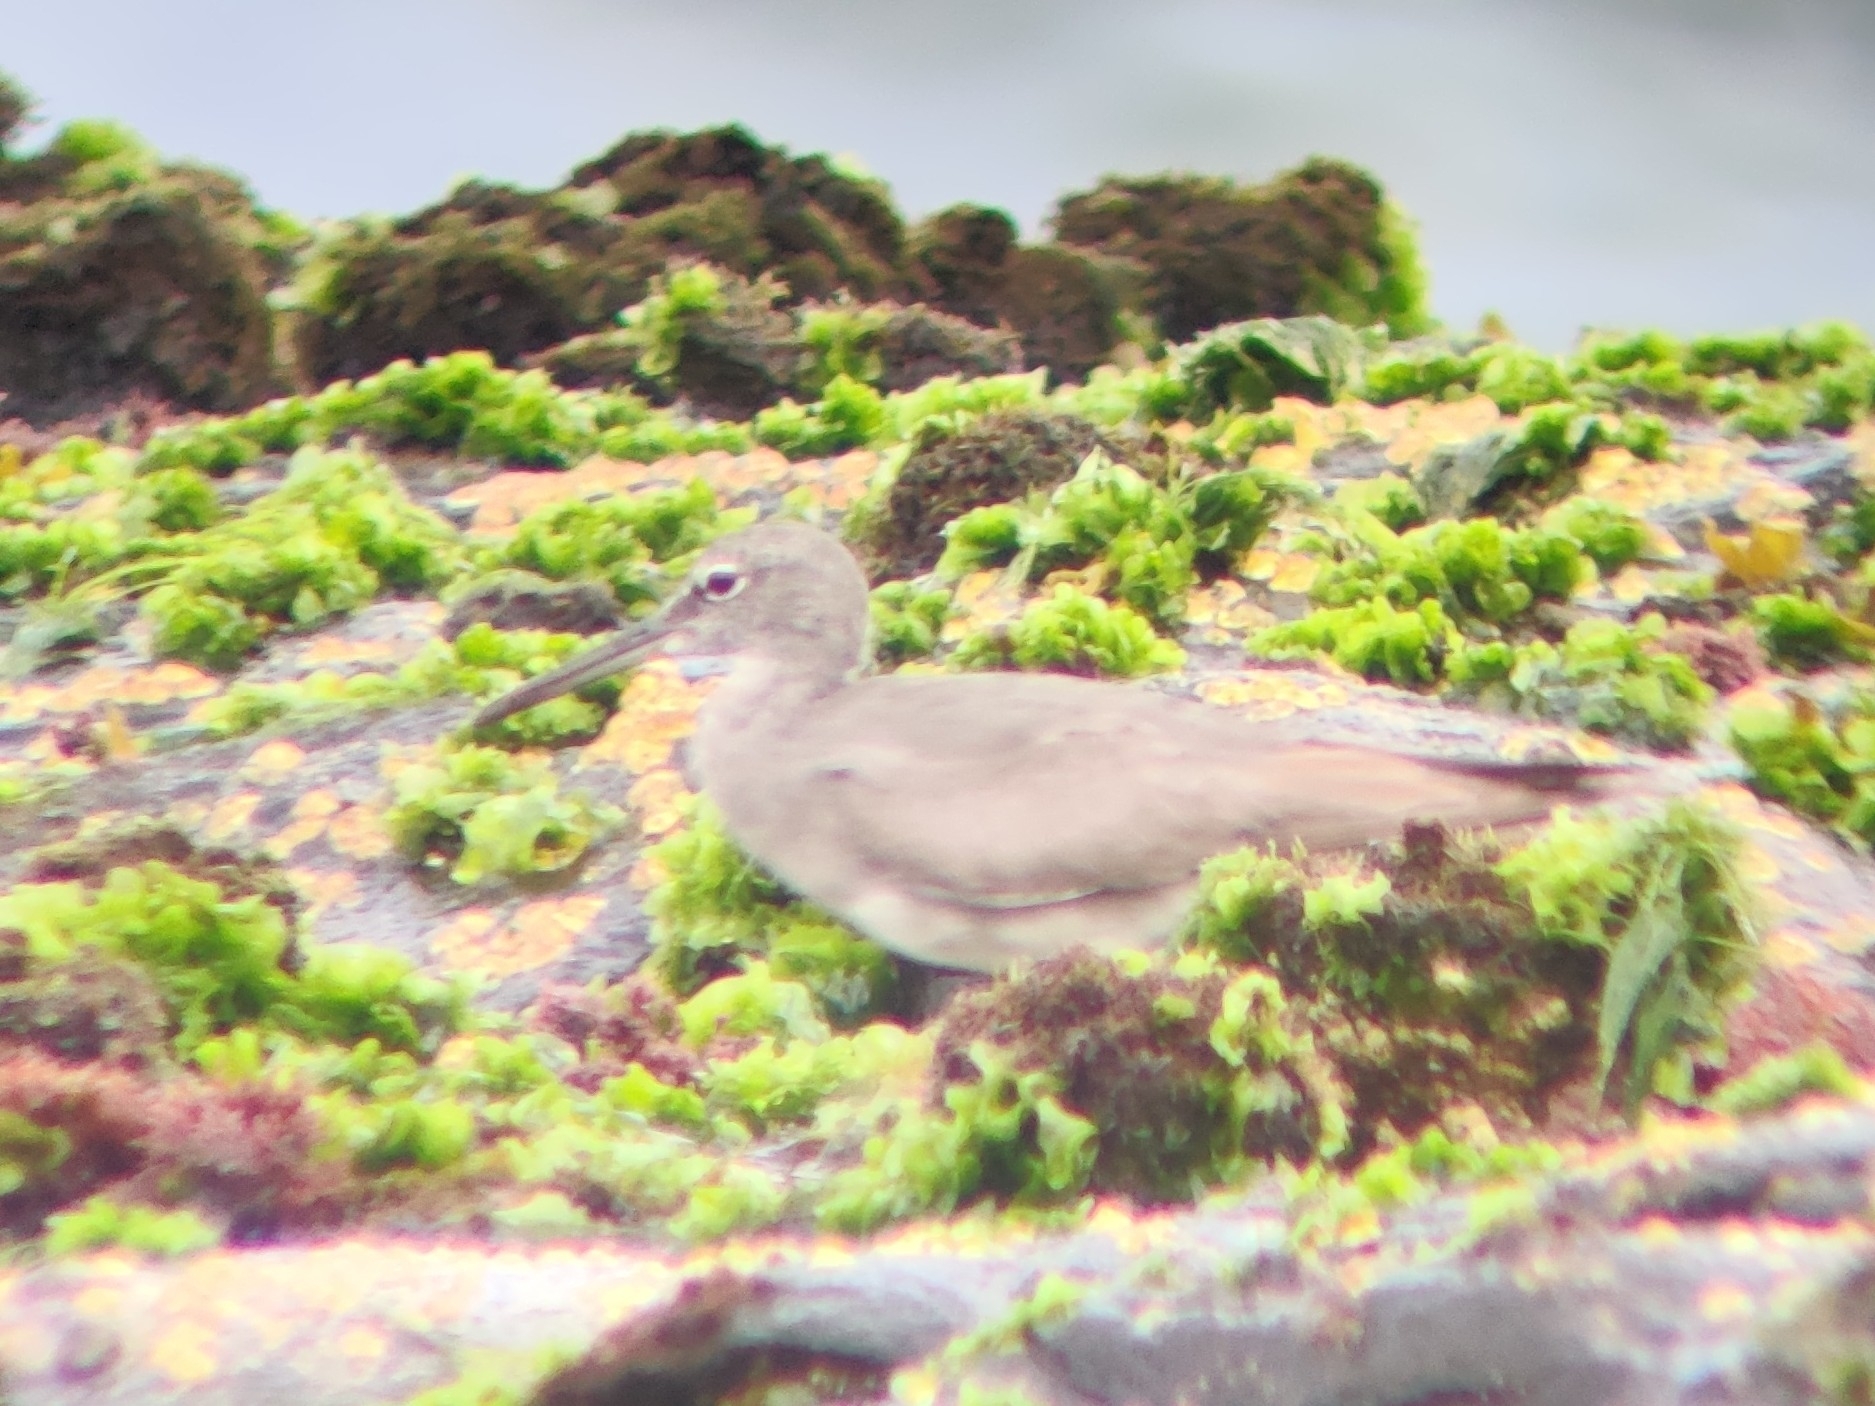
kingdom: Animalia
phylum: Chordata
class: Aves
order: Charadriiformes
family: Scolopacidae
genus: Tringa
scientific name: Tringa incana
